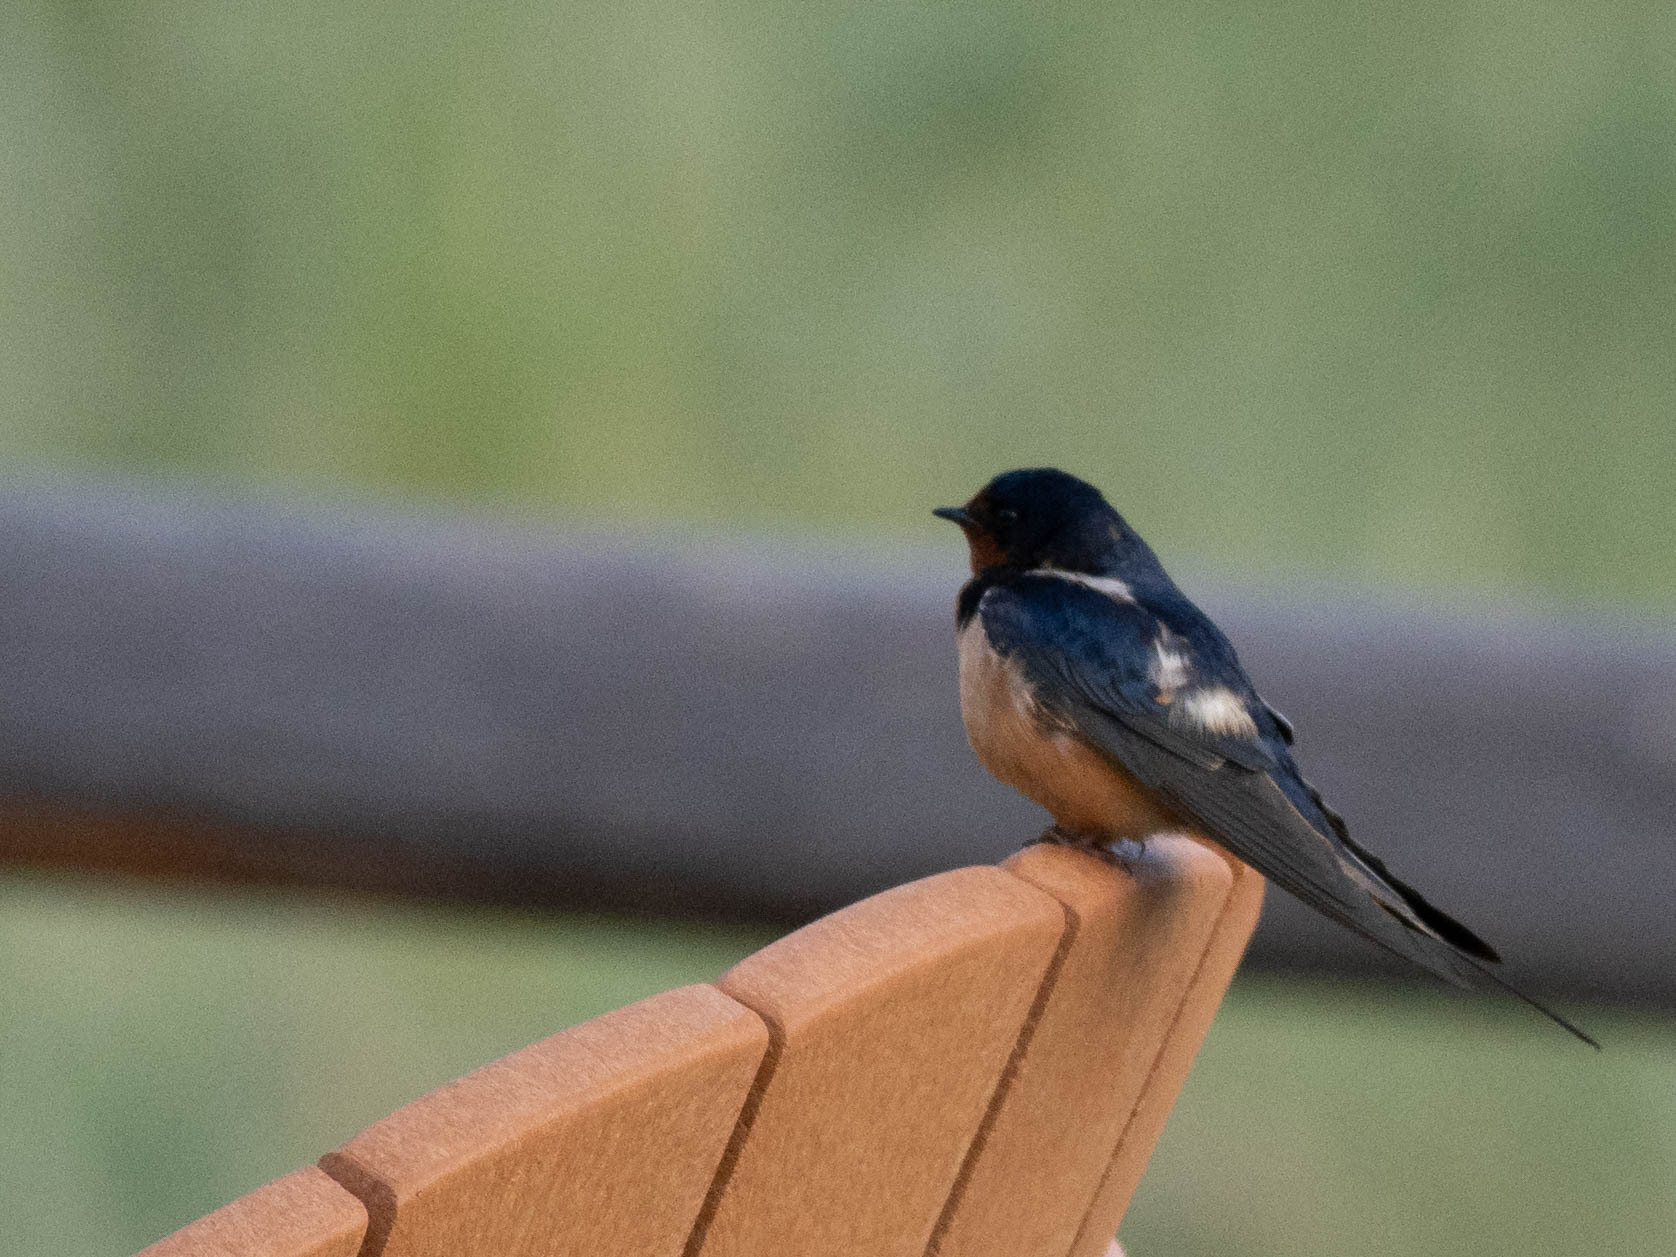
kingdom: Animalia
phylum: Chordata
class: Aves
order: Passeriformes
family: Hirundinidae
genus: Hirundo
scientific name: Hirundo rustica
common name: Barn swallow
